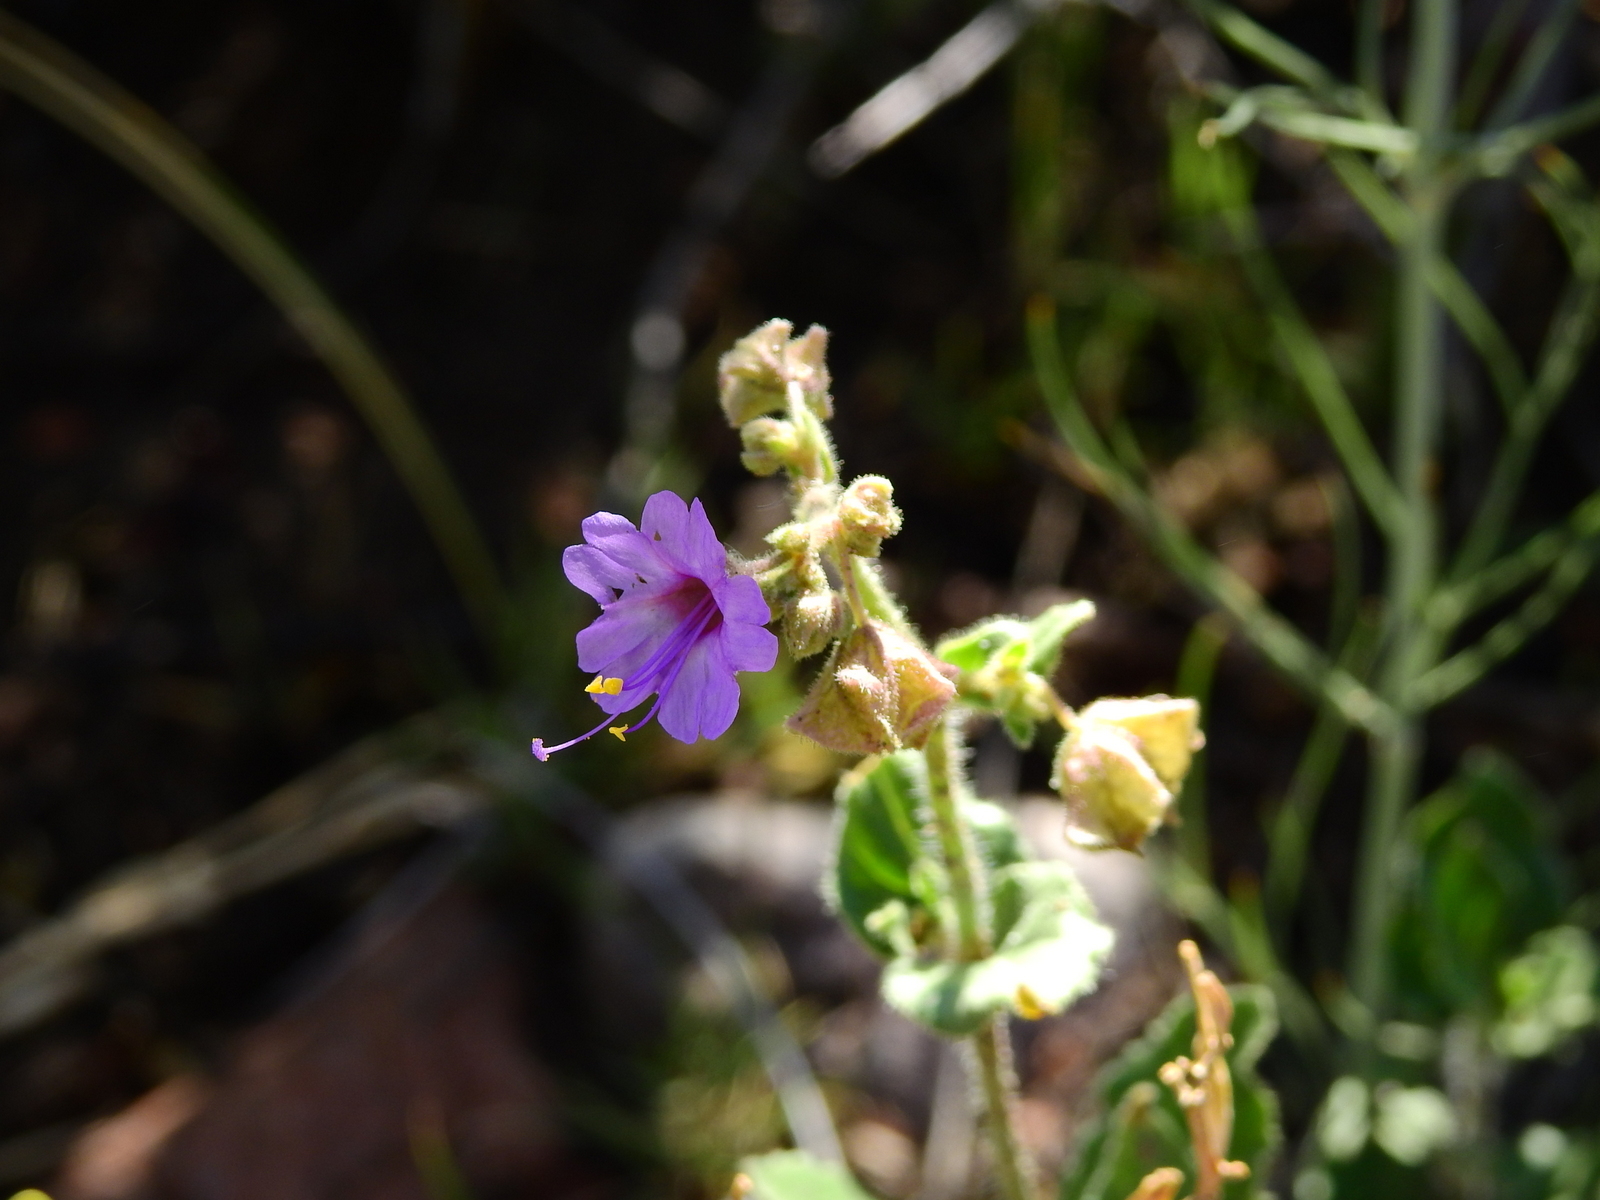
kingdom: Plantae
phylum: Tracheophyta
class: Magnoliopsida
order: Caryophyllales
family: Nyctaginaceae
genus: Mirabilis
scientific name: Mirabilis ovata
